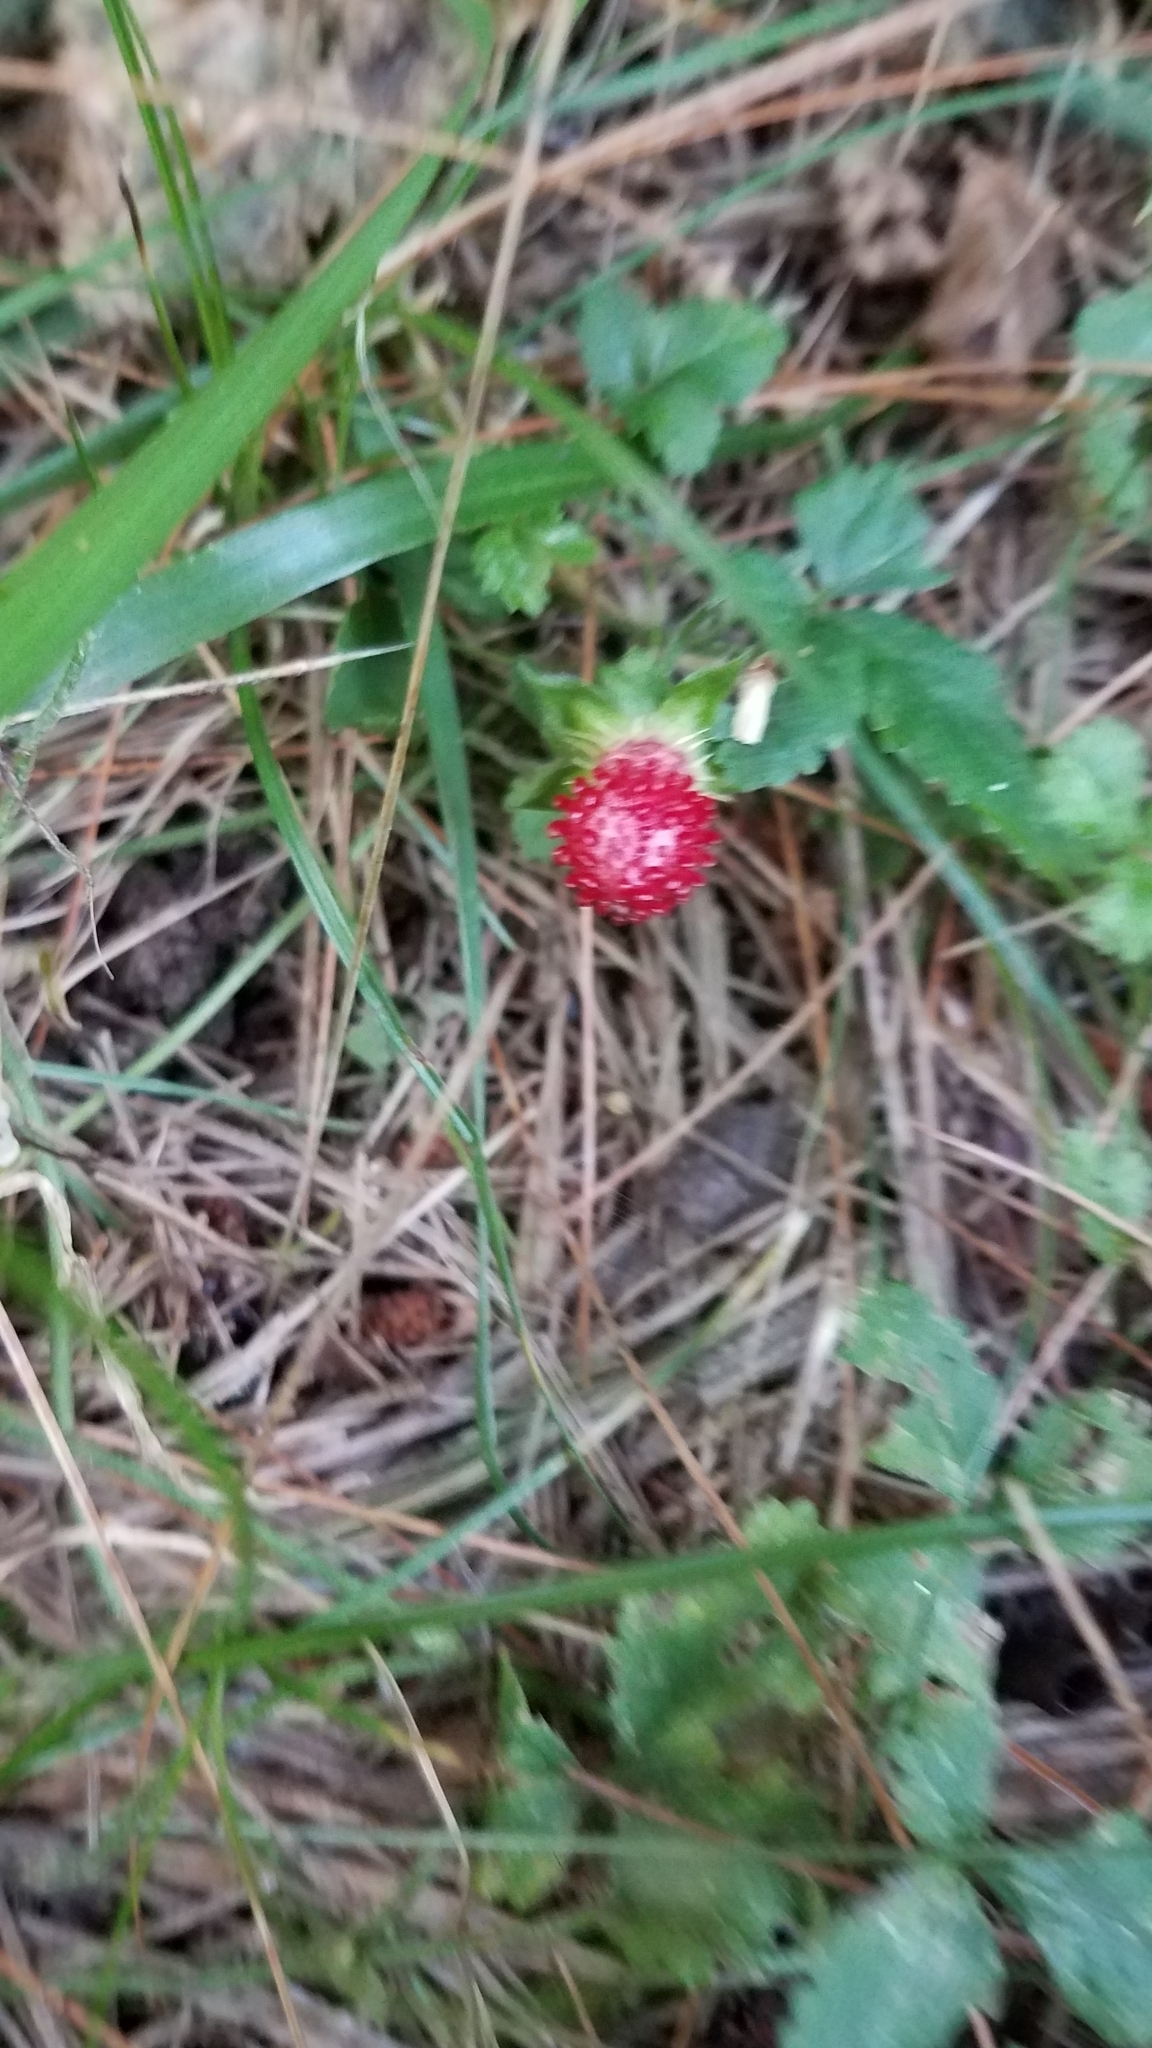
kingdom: Plantae
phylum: Tracheophyta
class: Magnoliopsida
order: Rosales
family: Rosaceae
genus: Potentilla
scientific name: Potentilla indica
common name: Yellow-flowered strawberry
